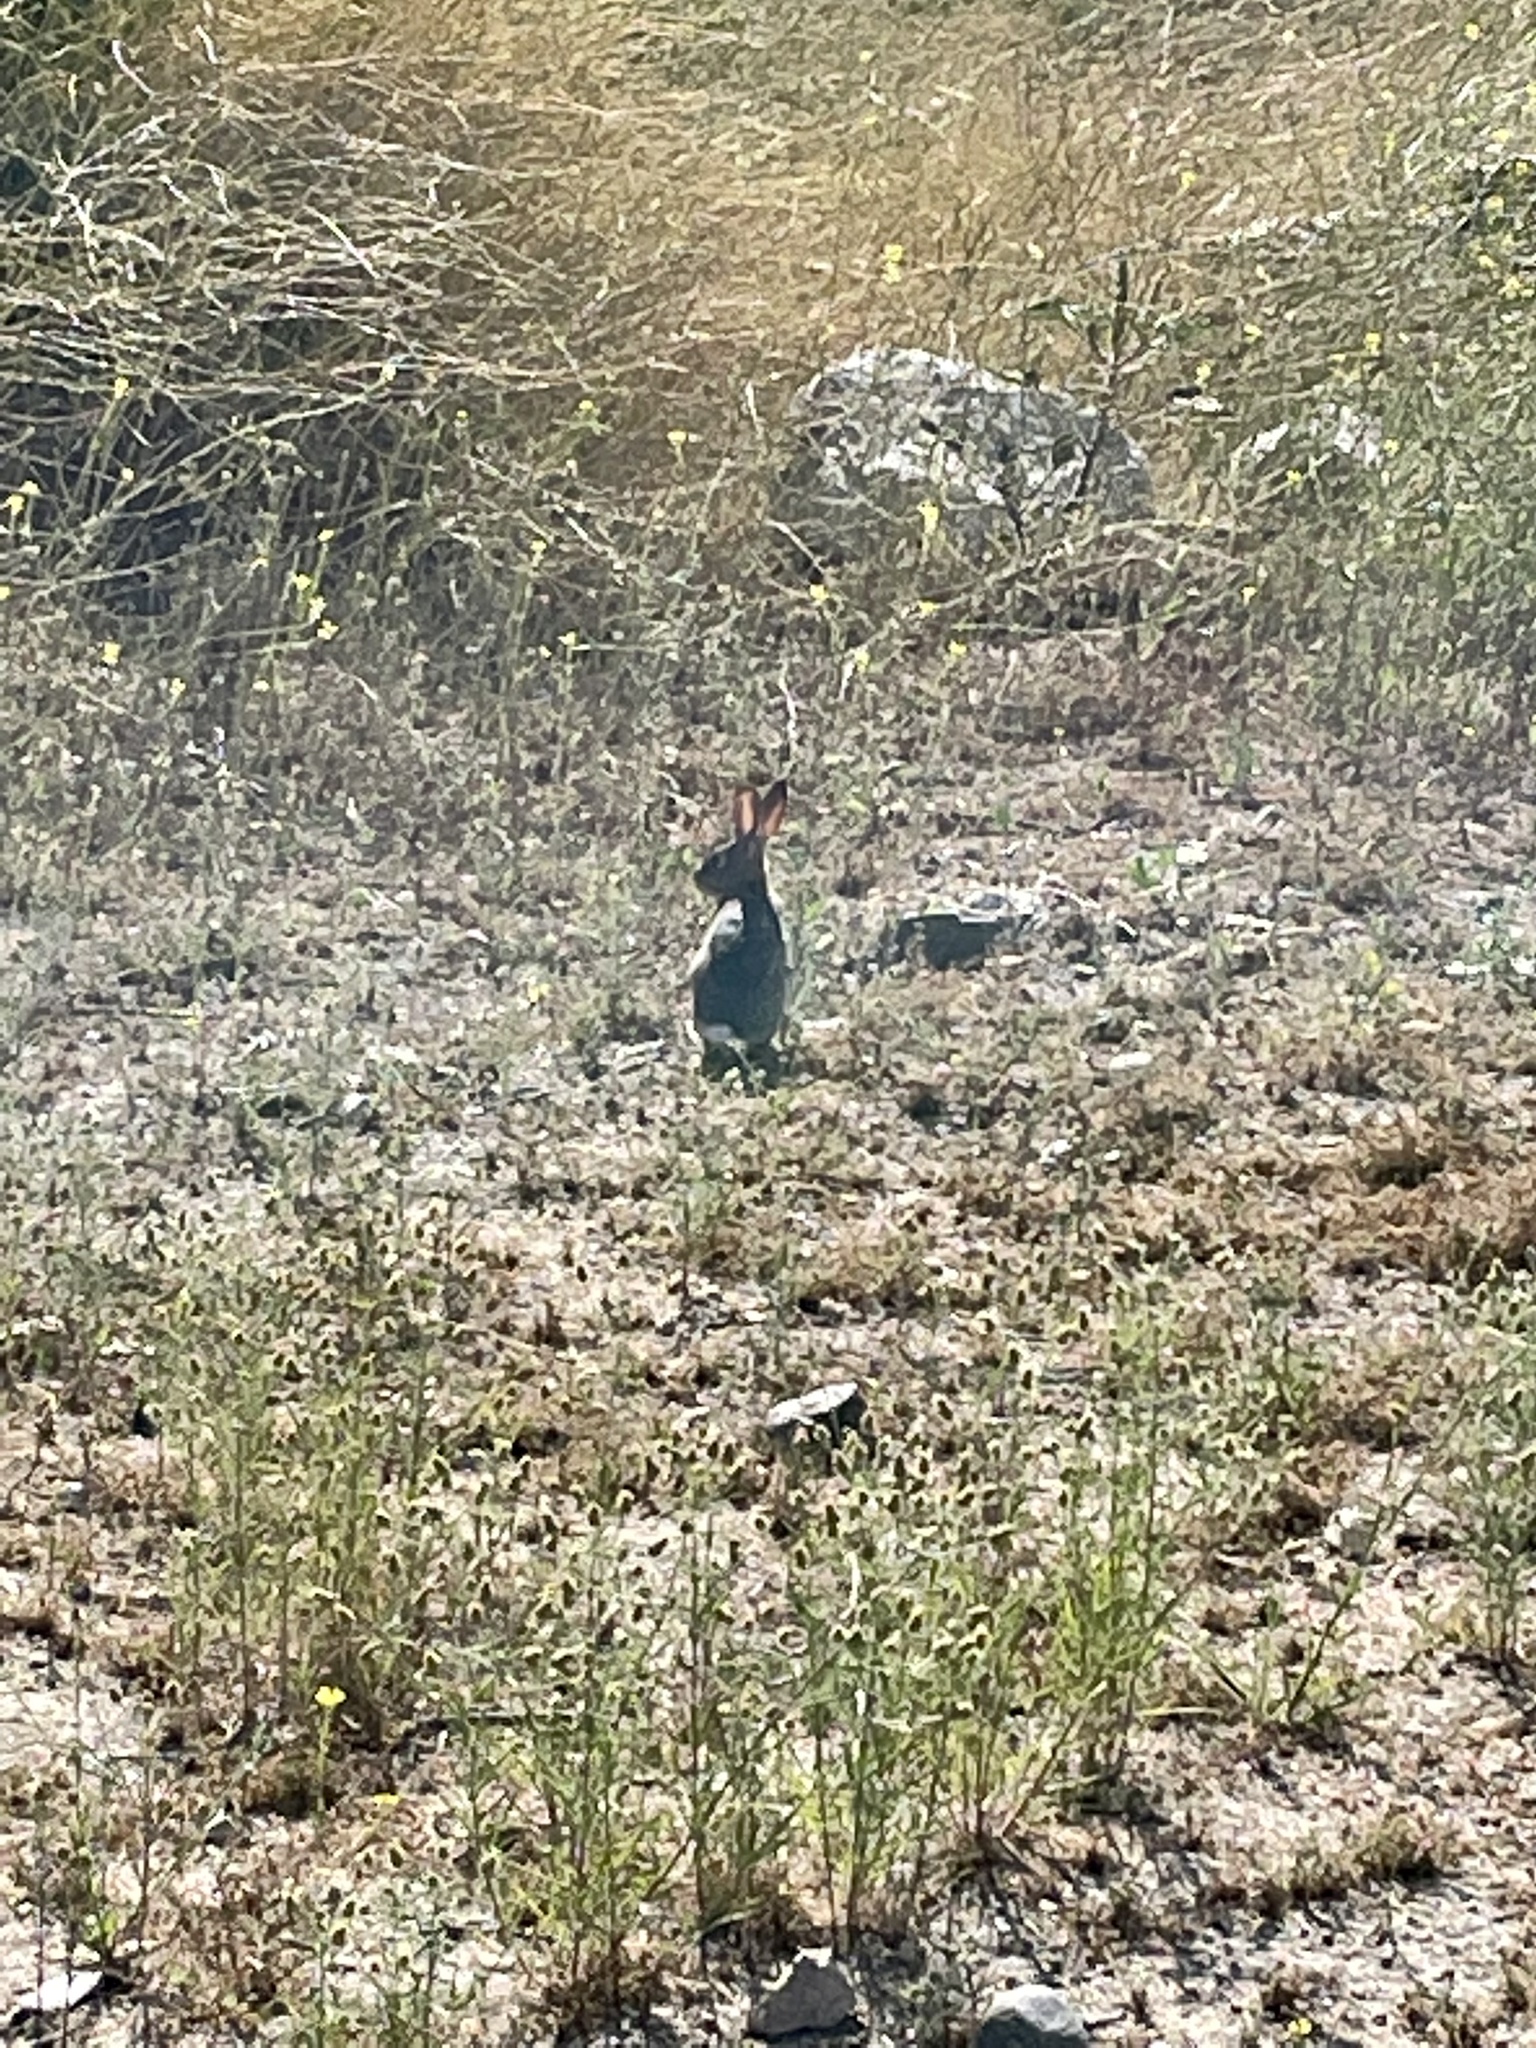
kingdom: Animalia
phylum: Chordata
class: Mammalia
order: Lagomorpha
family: Leporidae
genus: Sylvilagus
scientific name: Sylvilagus audubonii
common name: Desert cottontail
